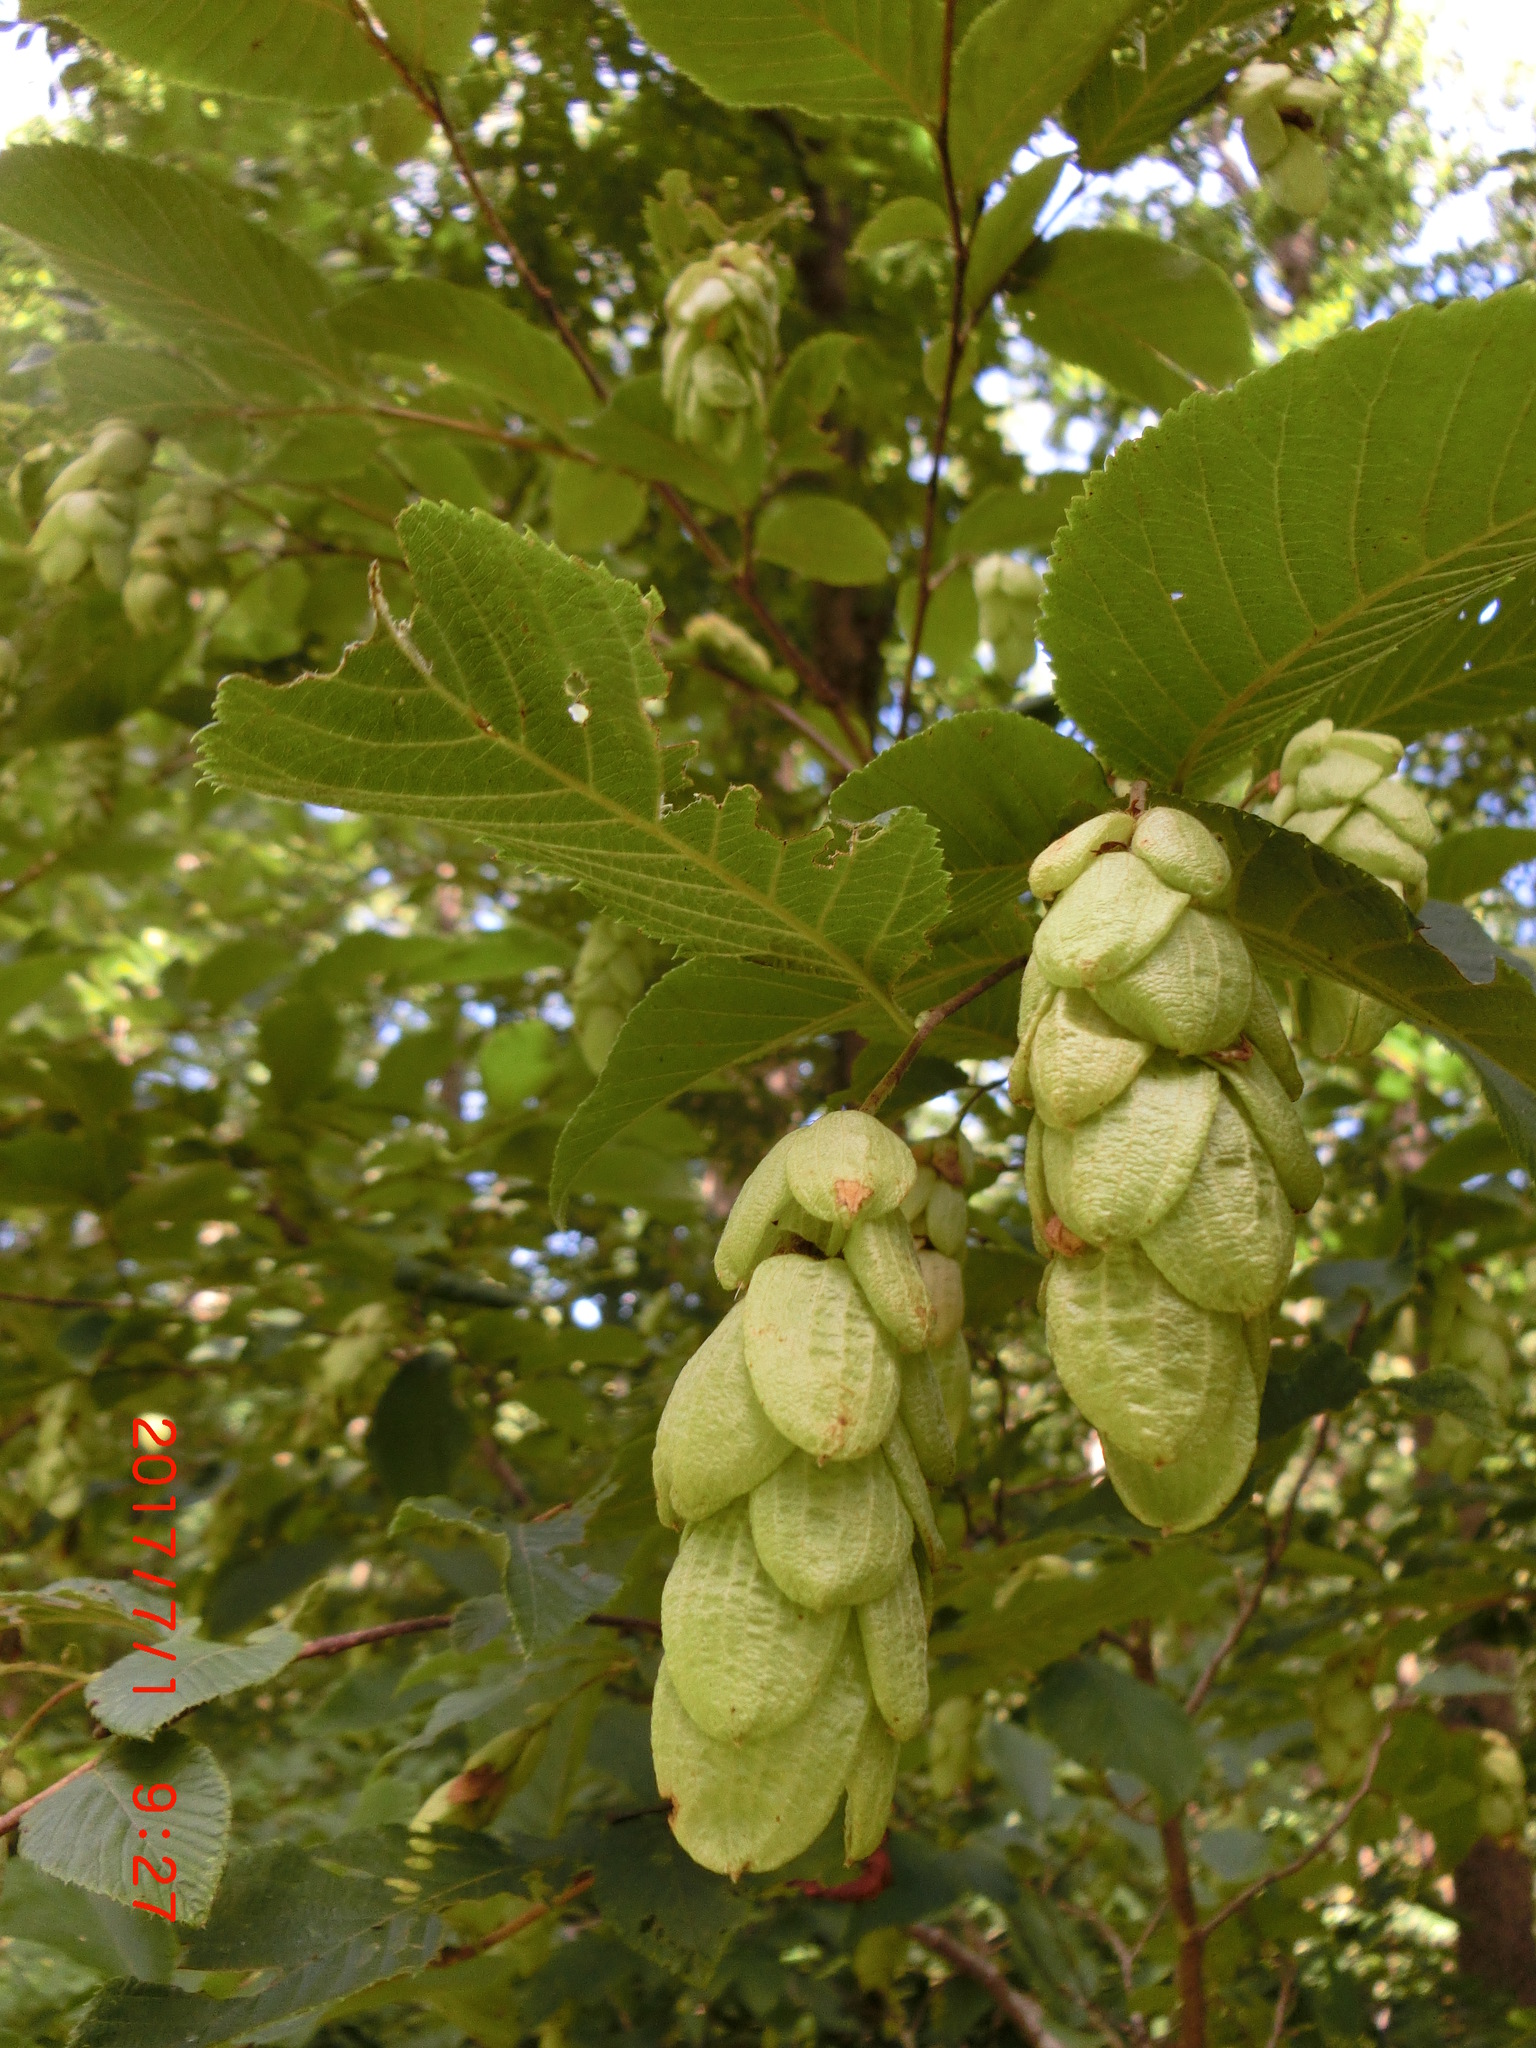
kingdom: Plantae
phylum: Tracheophyta
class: Magnoliopsida
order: Fagales
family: Betulaceae
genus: Ostrya
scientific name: Ostrya virginiana
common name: Ironwood
